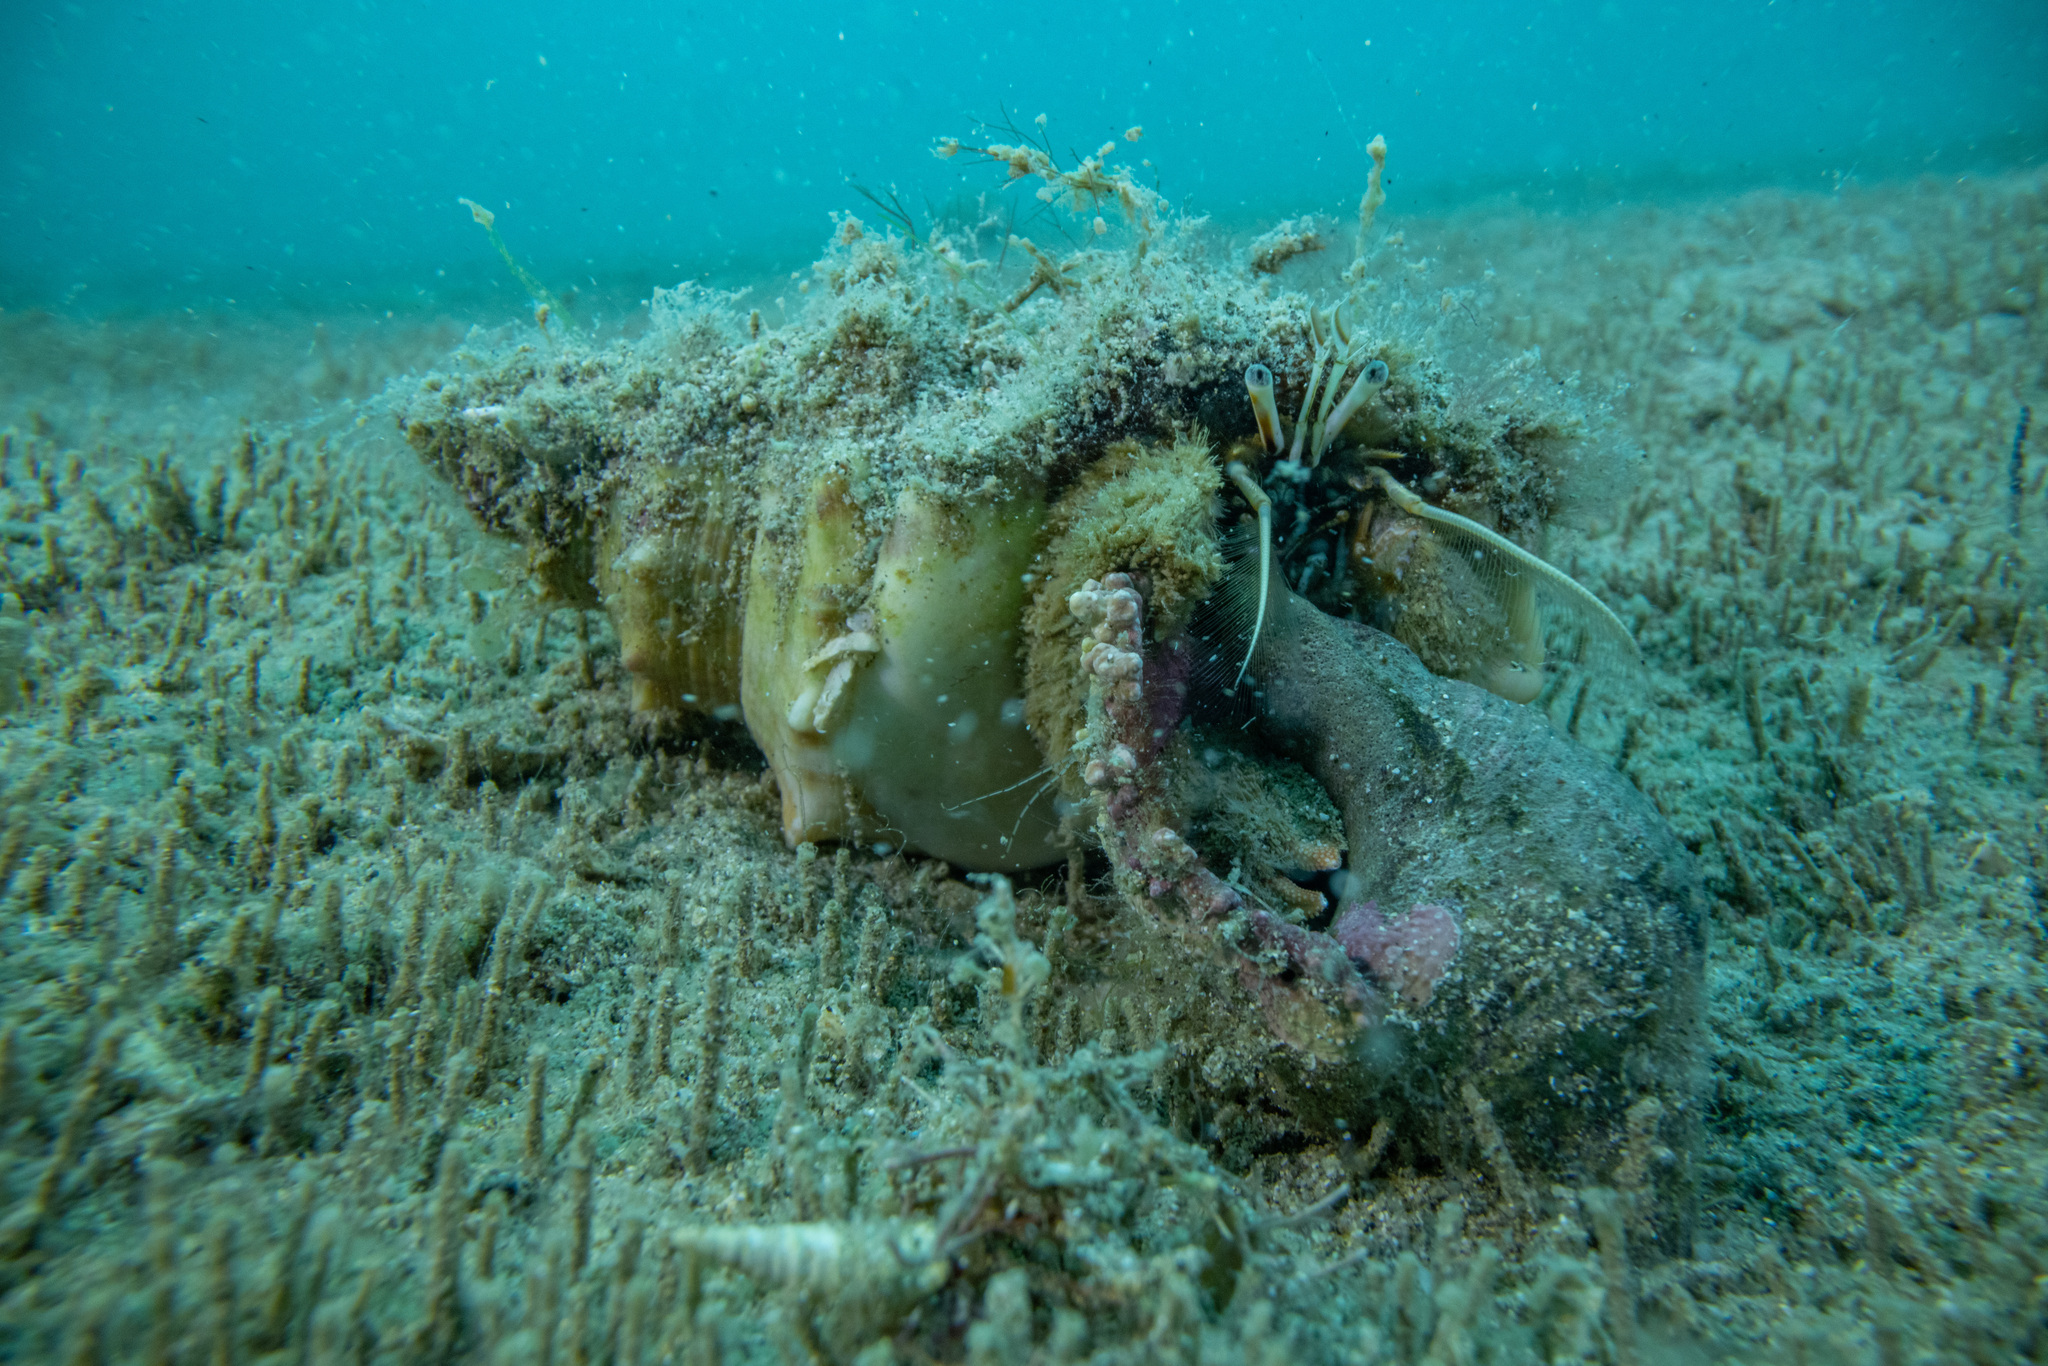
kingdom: Animalia
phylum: Arthropoda
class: Malacostraca
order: Decapoda
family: Diogenidae
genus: Areopaguristes
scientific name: Areopaguristes setosus
